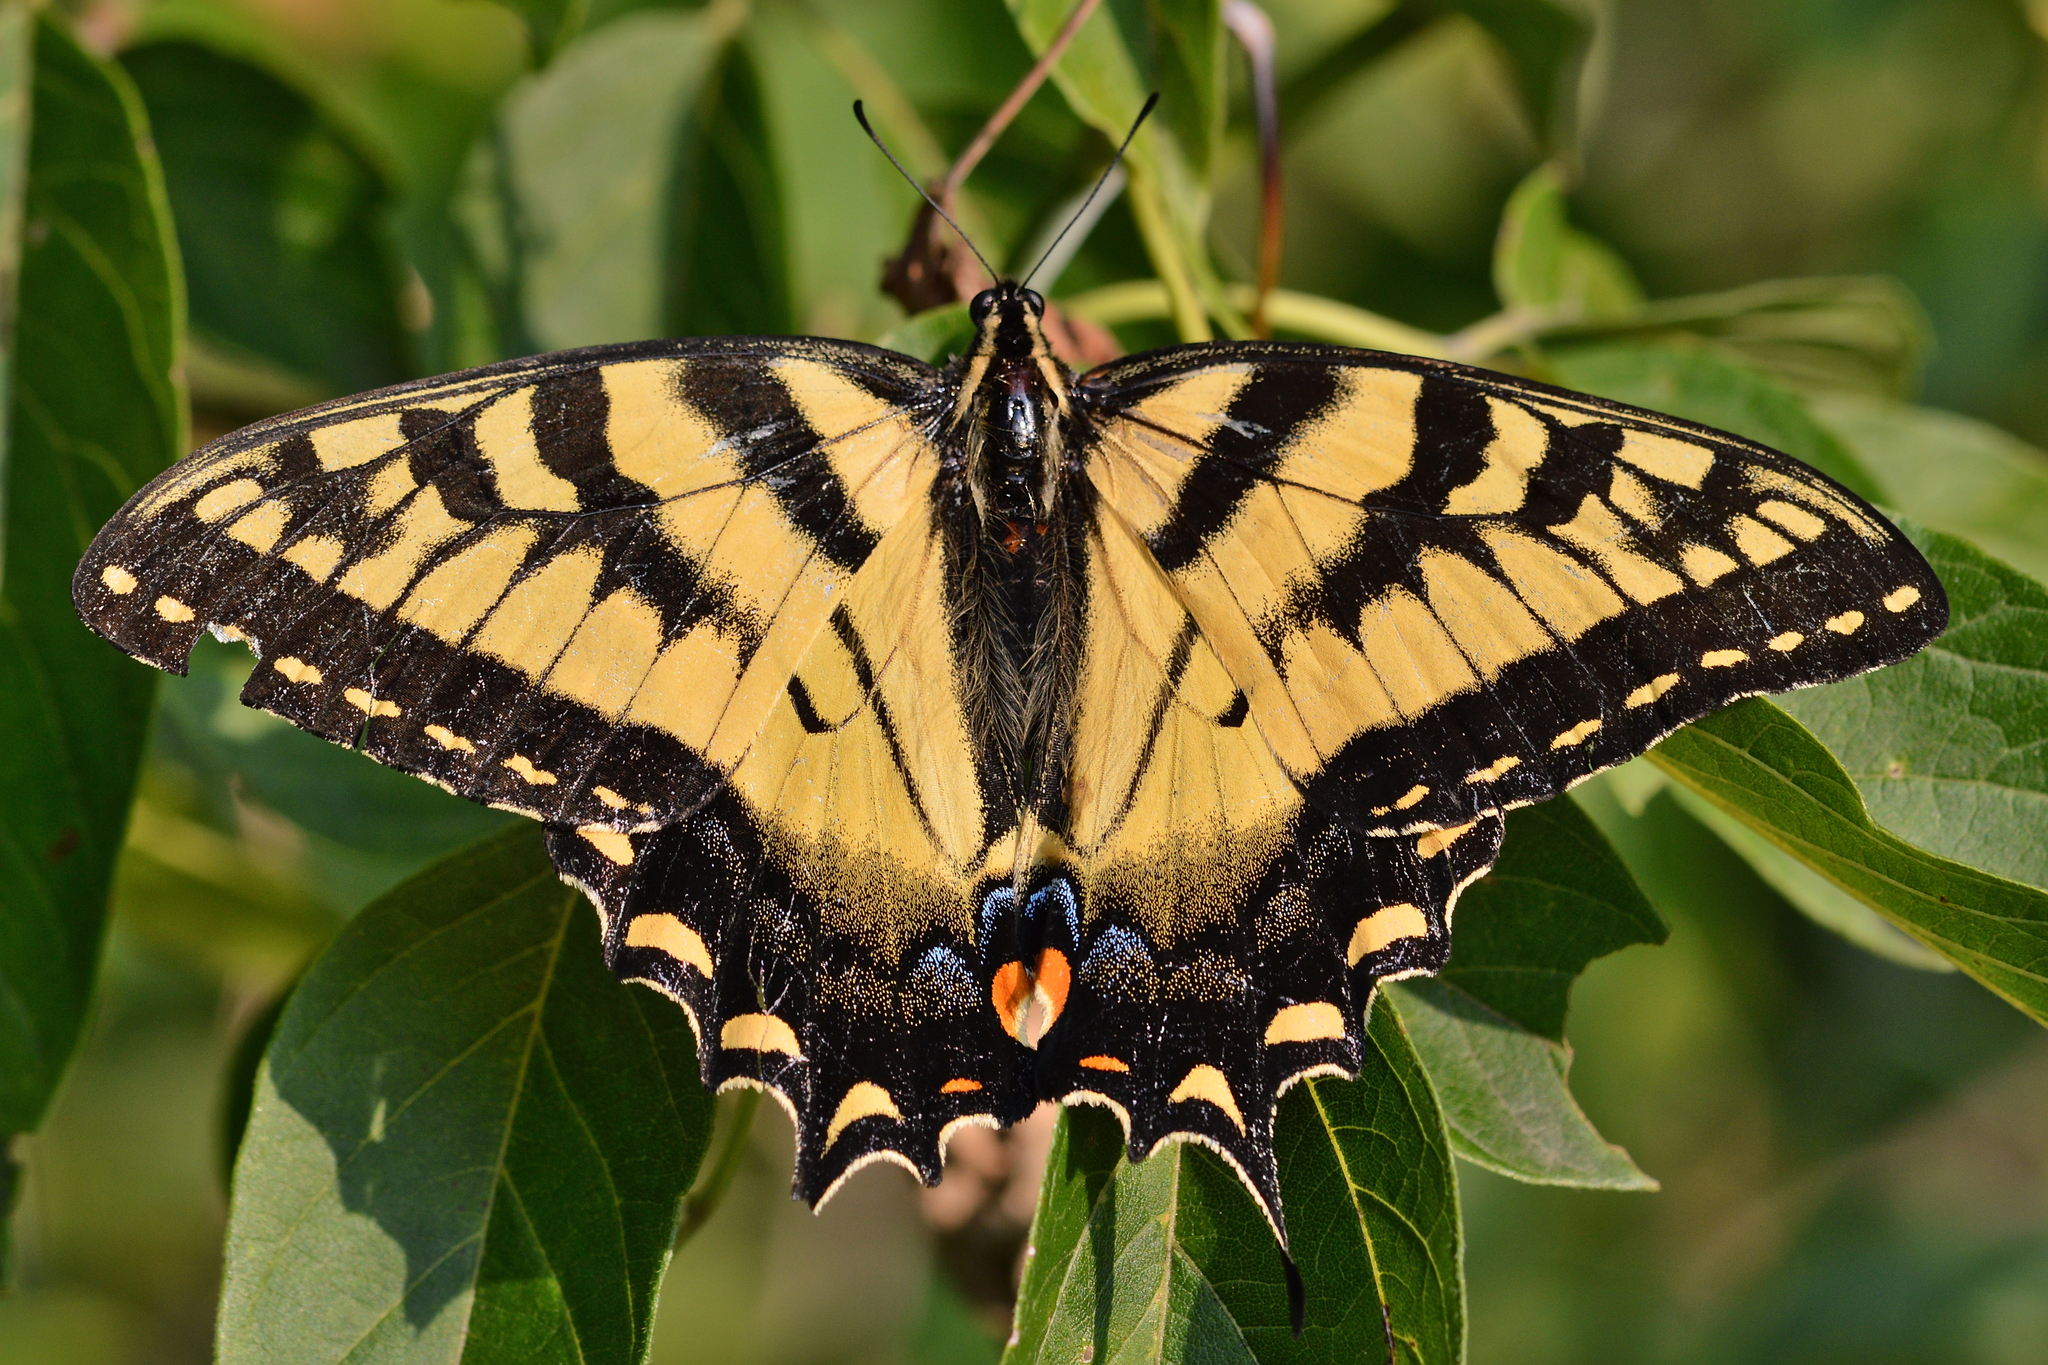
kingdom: Animalia
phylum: Arthropoda
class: Insecta
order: Lepidoptera
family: Papilionidae
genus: Papilio
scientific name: Papilio glaucus
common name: Tiger swallowtail
